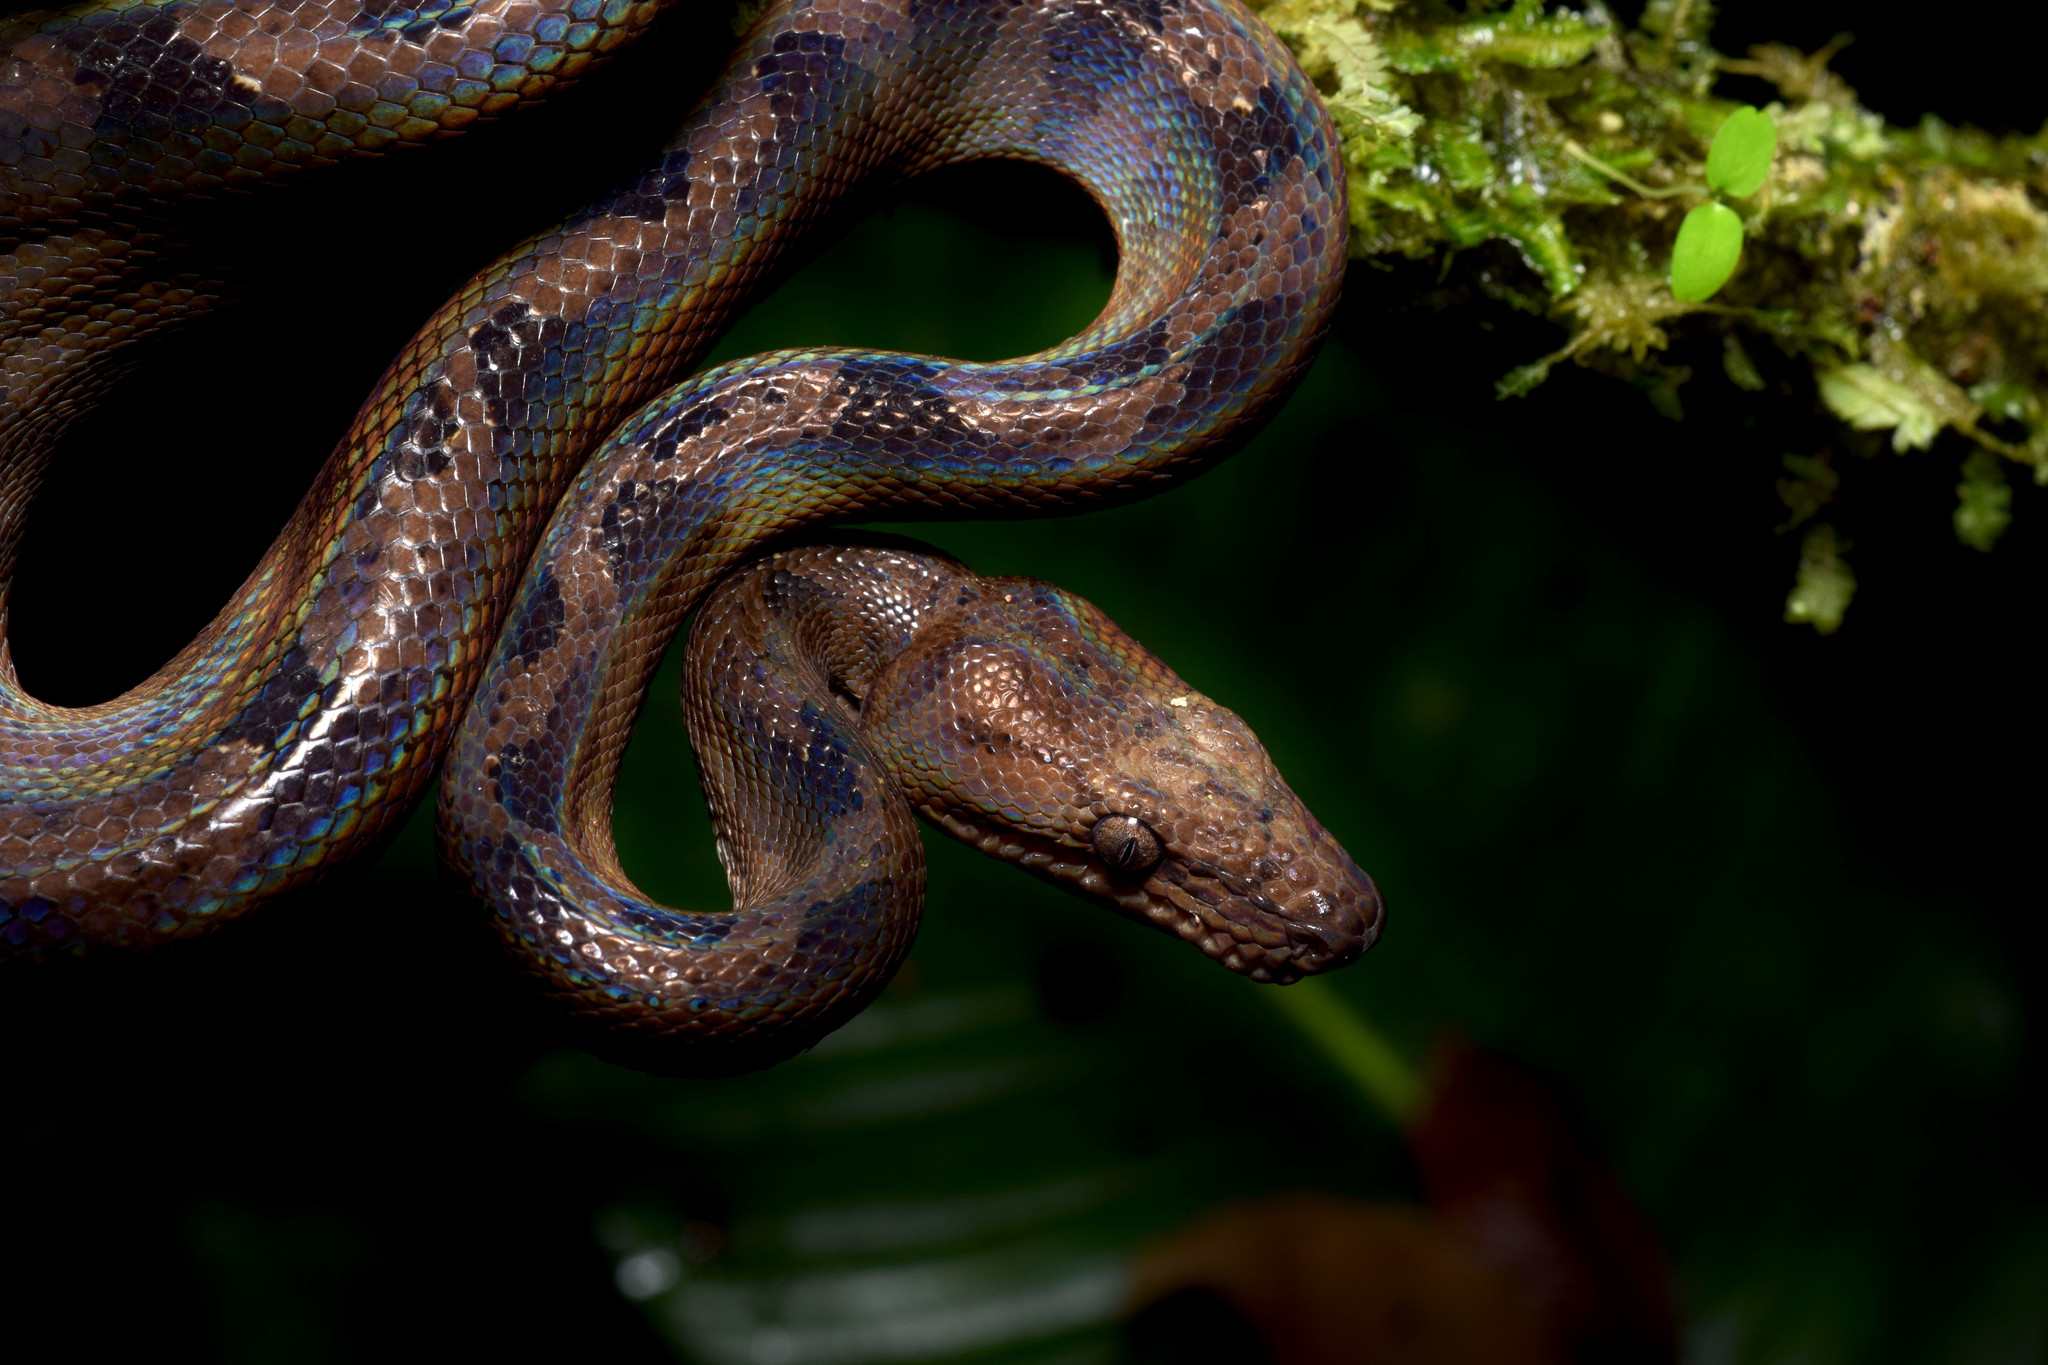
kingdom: Animalia
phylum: Chordata
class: Squamata
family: Boidae
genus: Corallus
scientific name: Corallus blombergi
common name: Blomber’s tree boa
